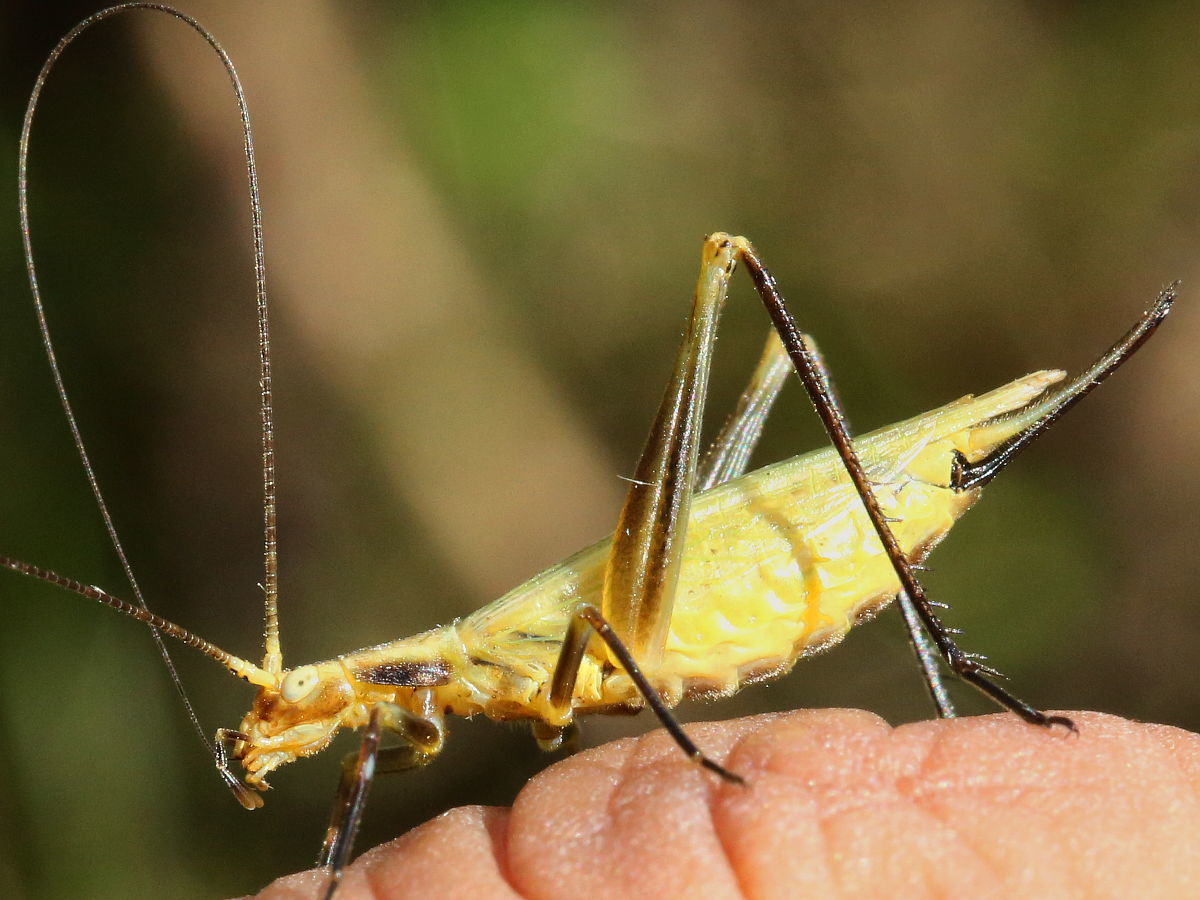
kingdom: Animalia
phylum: Arthropoda
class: Insecta
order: Orthoptera
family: Gryllidae
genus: Oecanthus
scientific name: Oecanthus forbesi
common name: Forbes’s tree cricket
